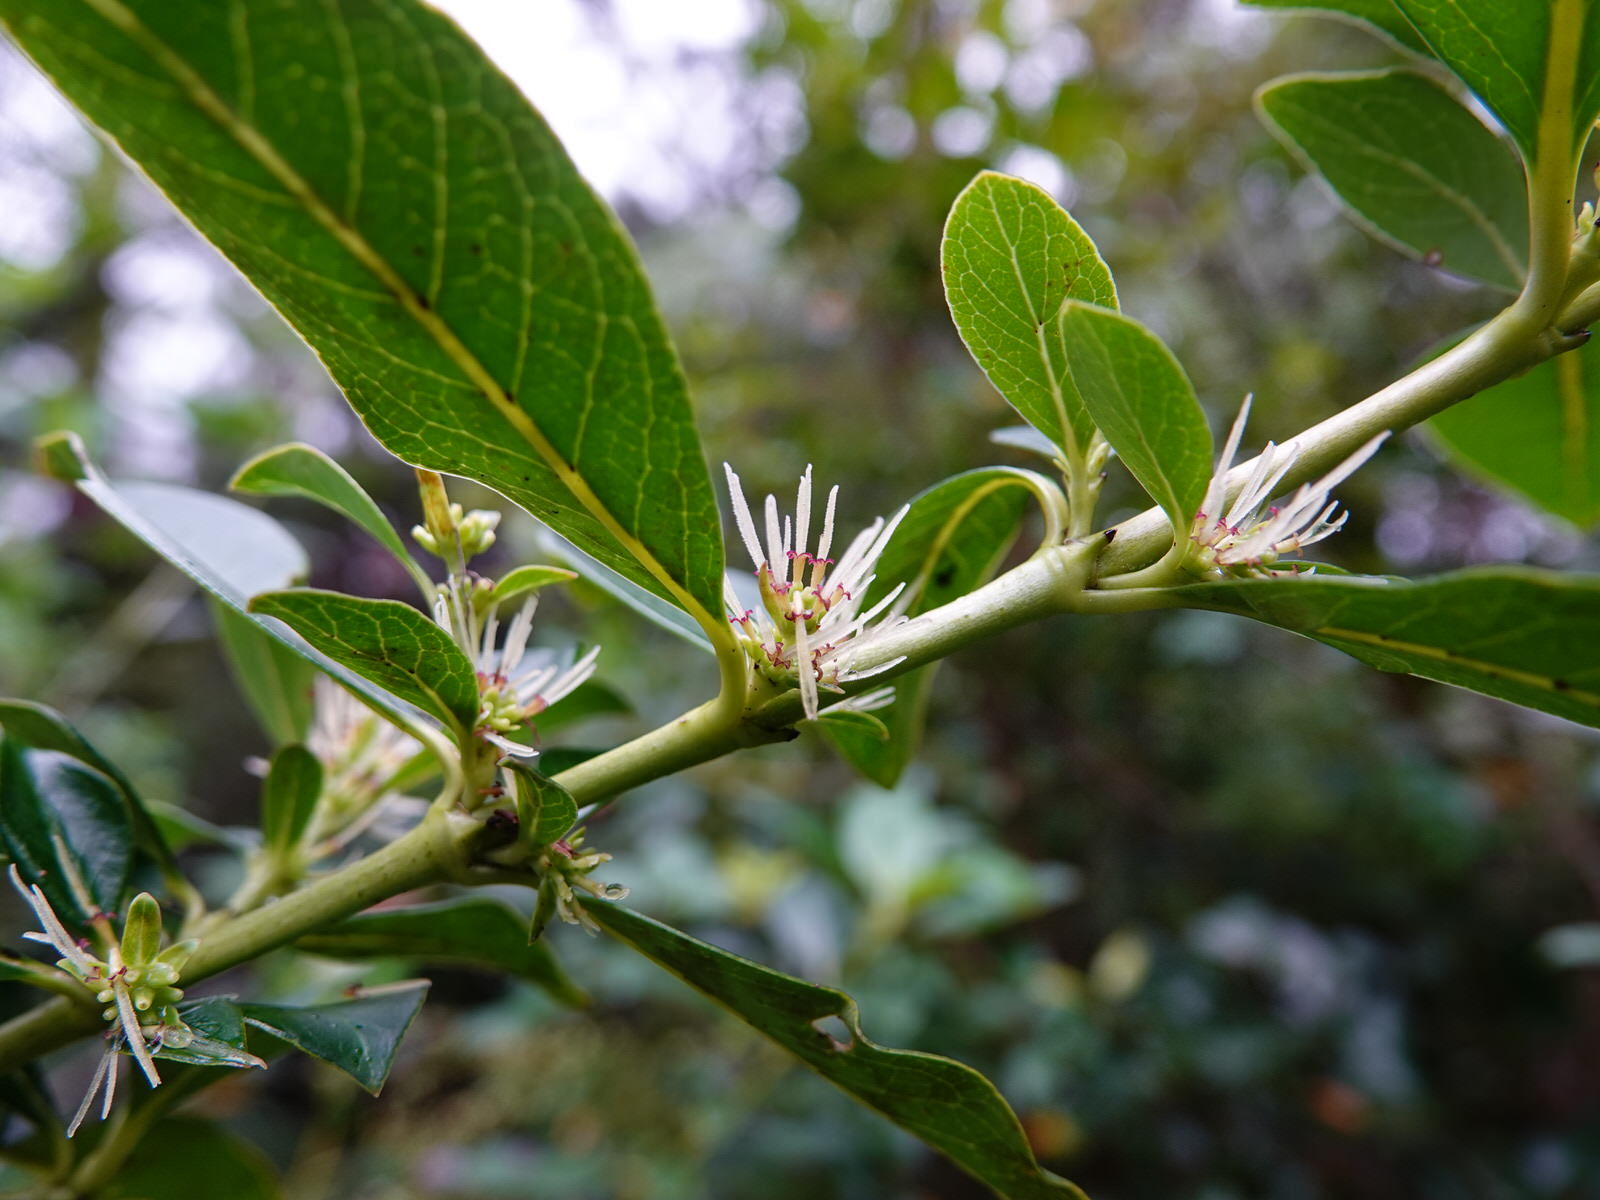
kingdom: Plantae
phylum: Tracheophyta
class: Magnoliopsida
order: Gentianales
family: Rubiaceae
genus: Coprosma
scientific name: Coprosma robusta
